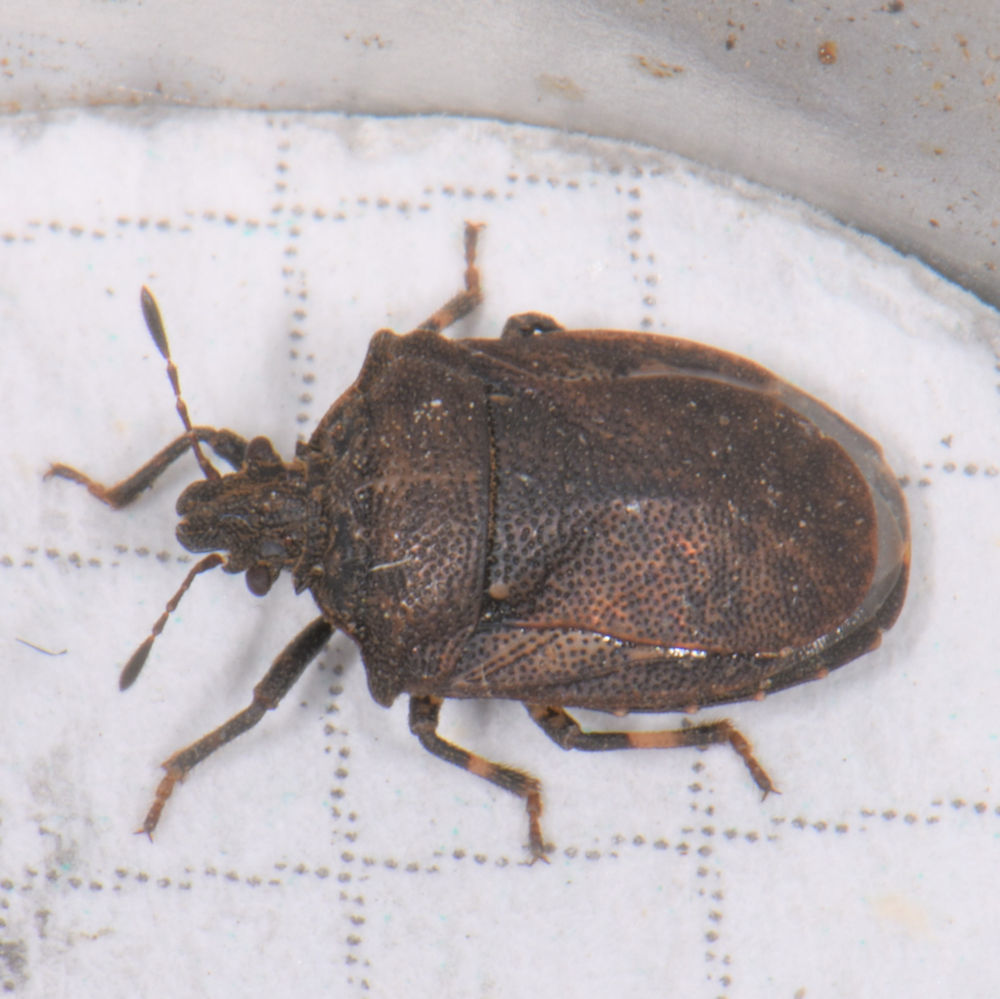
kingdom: Animalia
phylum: Arthropoda
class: Insecta
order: Hemiptera
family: Pentatomidae
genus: Amaurochrous
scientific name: Amaurochrous cinctipes
